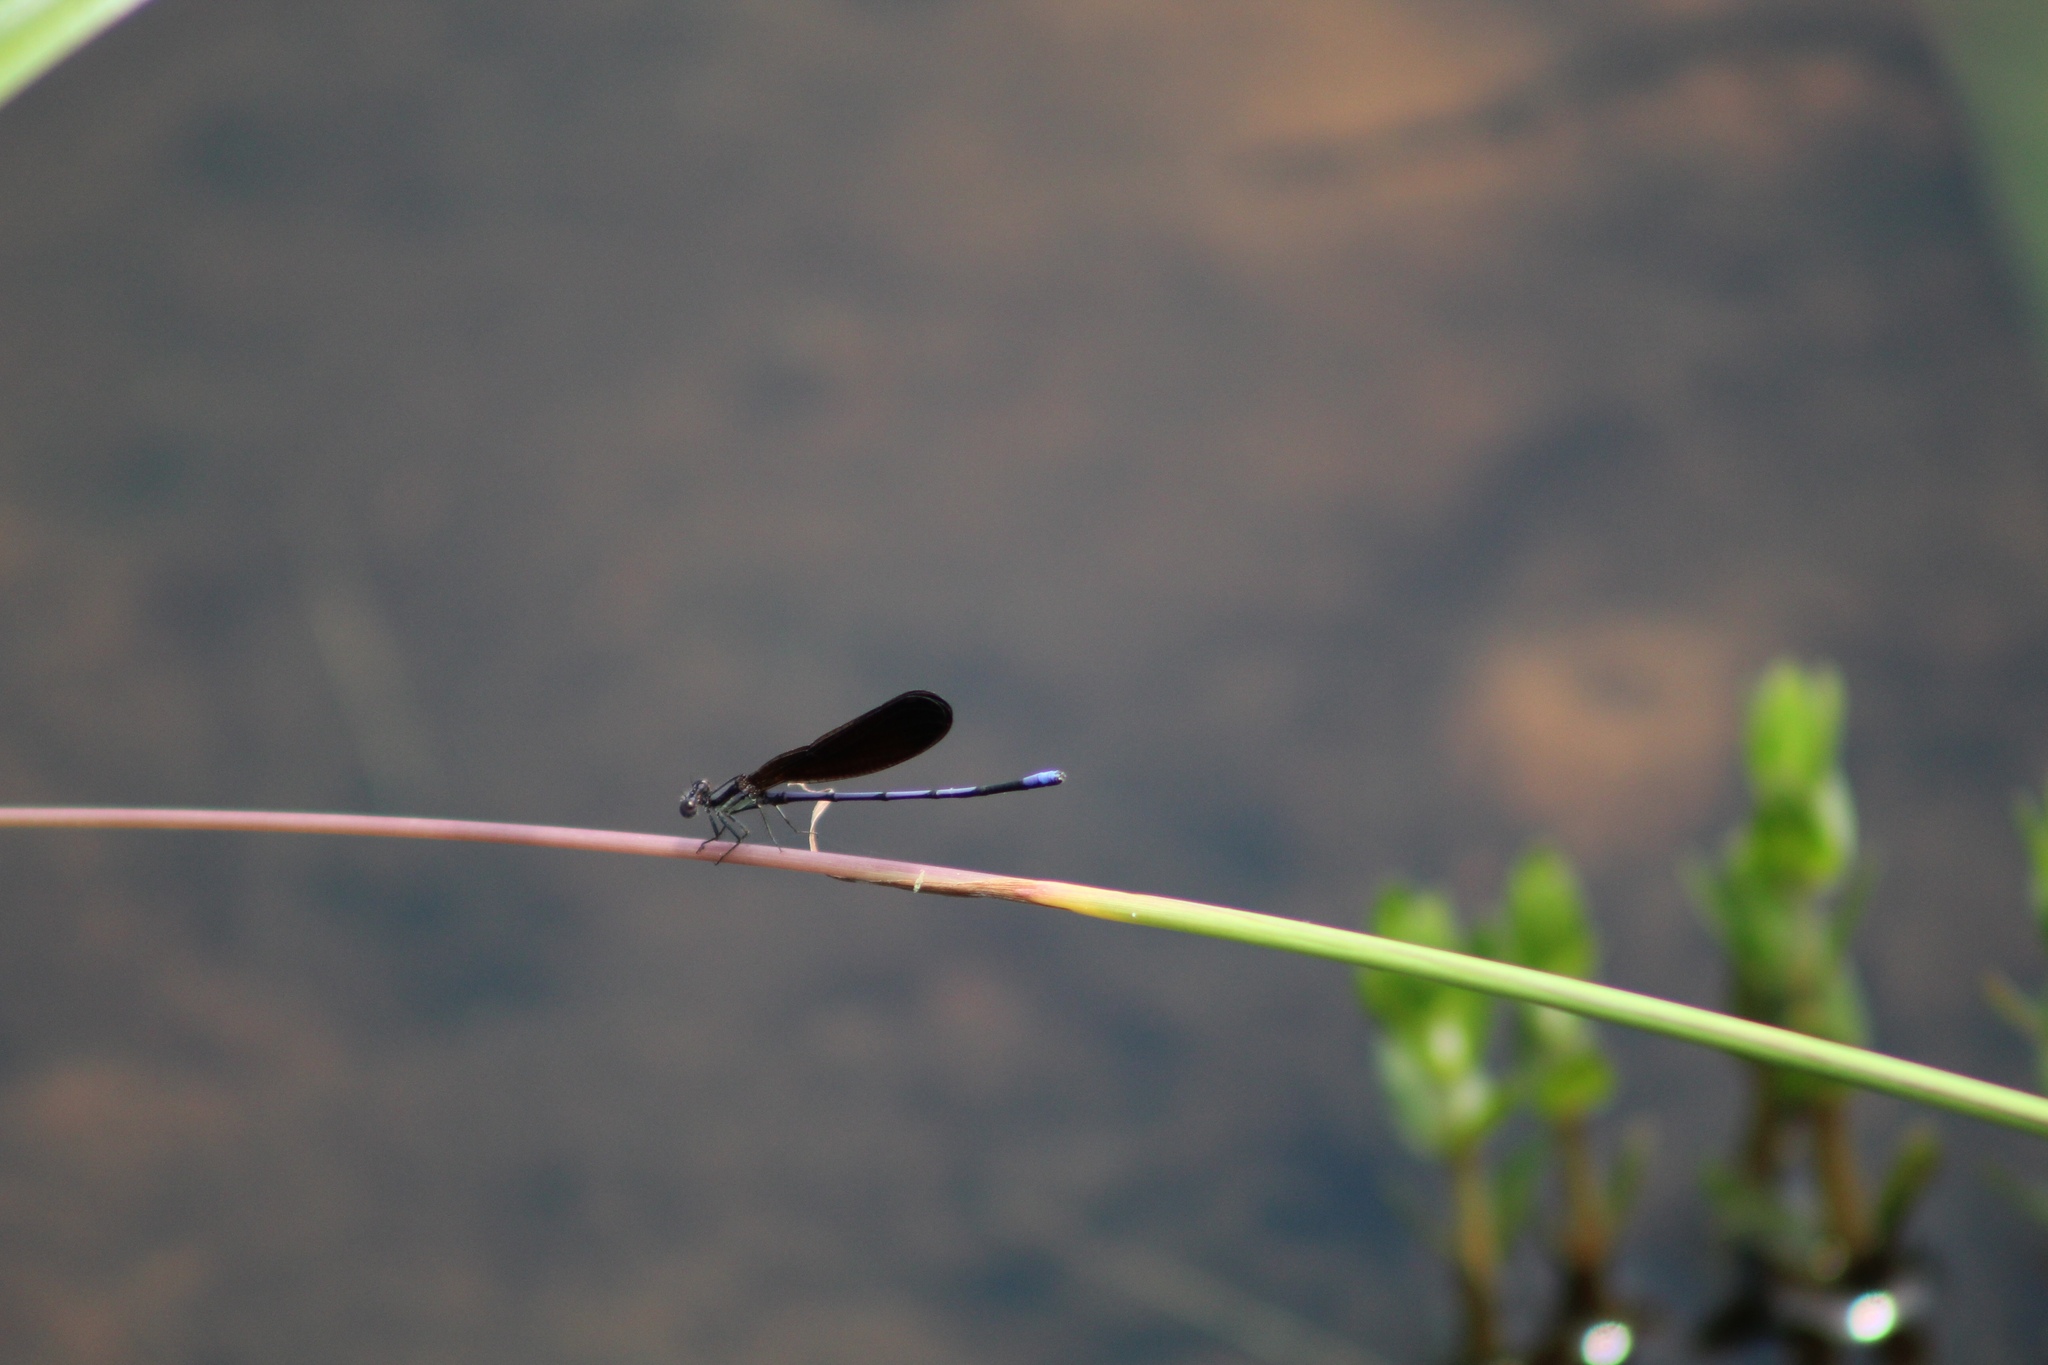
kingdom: Animalia
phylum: Arthropoda
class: Insecta
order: Odonata
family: Coenagrionidae
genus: Argia
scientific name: Argia fumipennis
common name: Variable dancer
